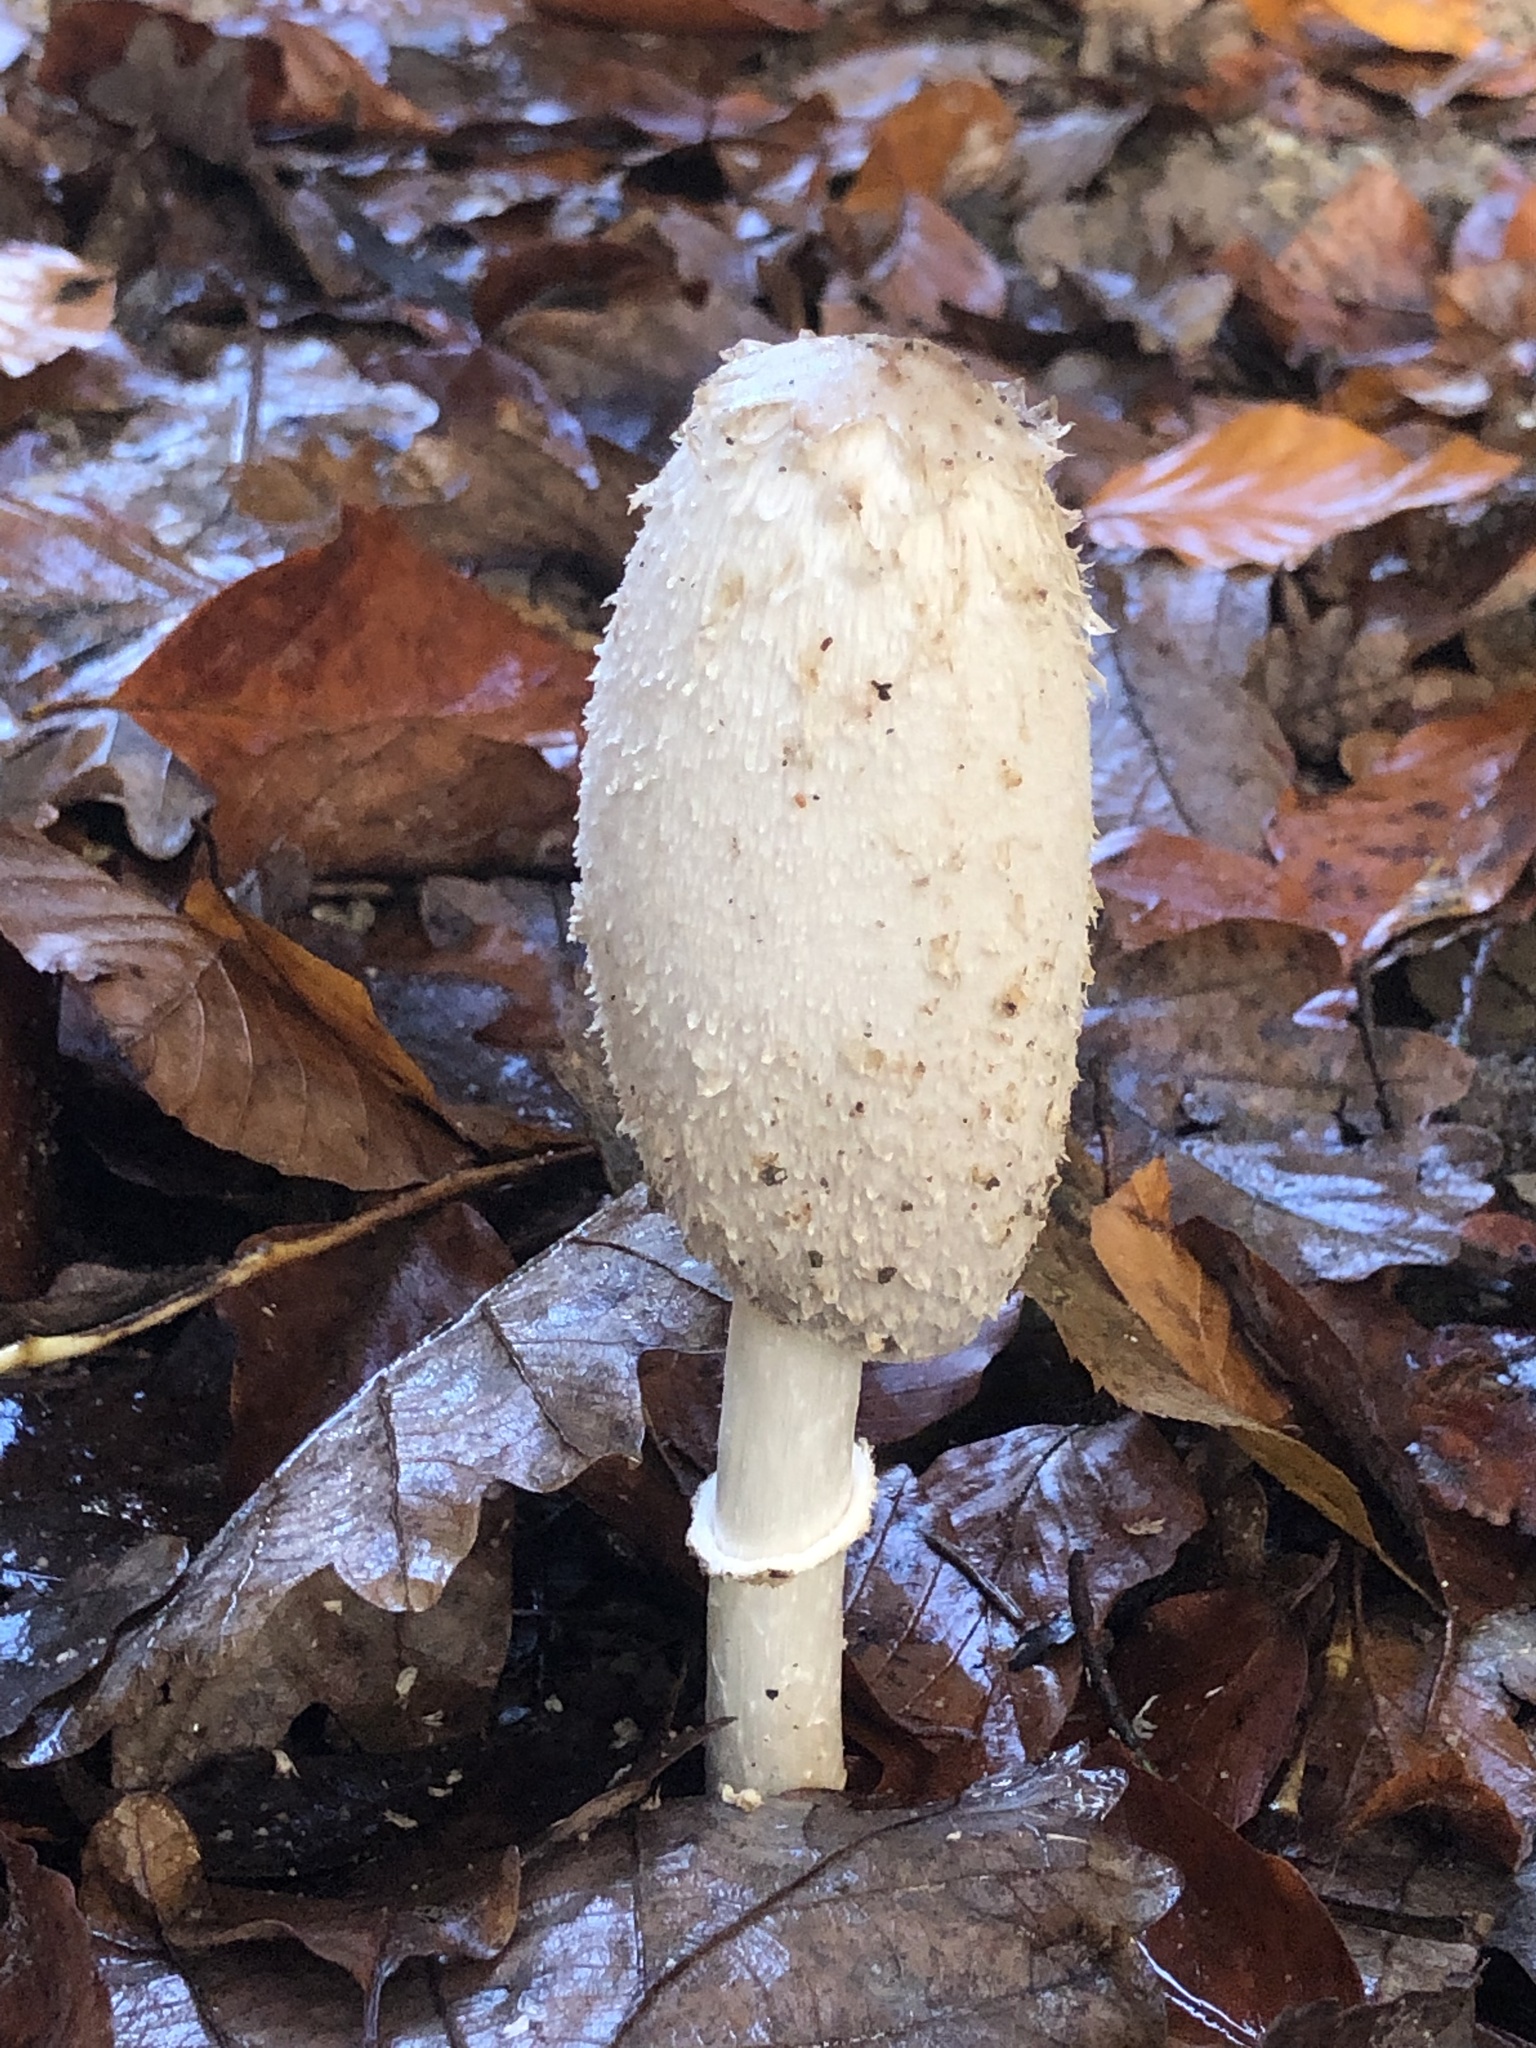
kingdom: Fungi
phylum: Basidiomycota
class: Agaricomycetes
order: Agaricales
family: Agaricaceae
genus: Coprinus
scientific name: Coprinus comatus
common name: Lawyer's wig
